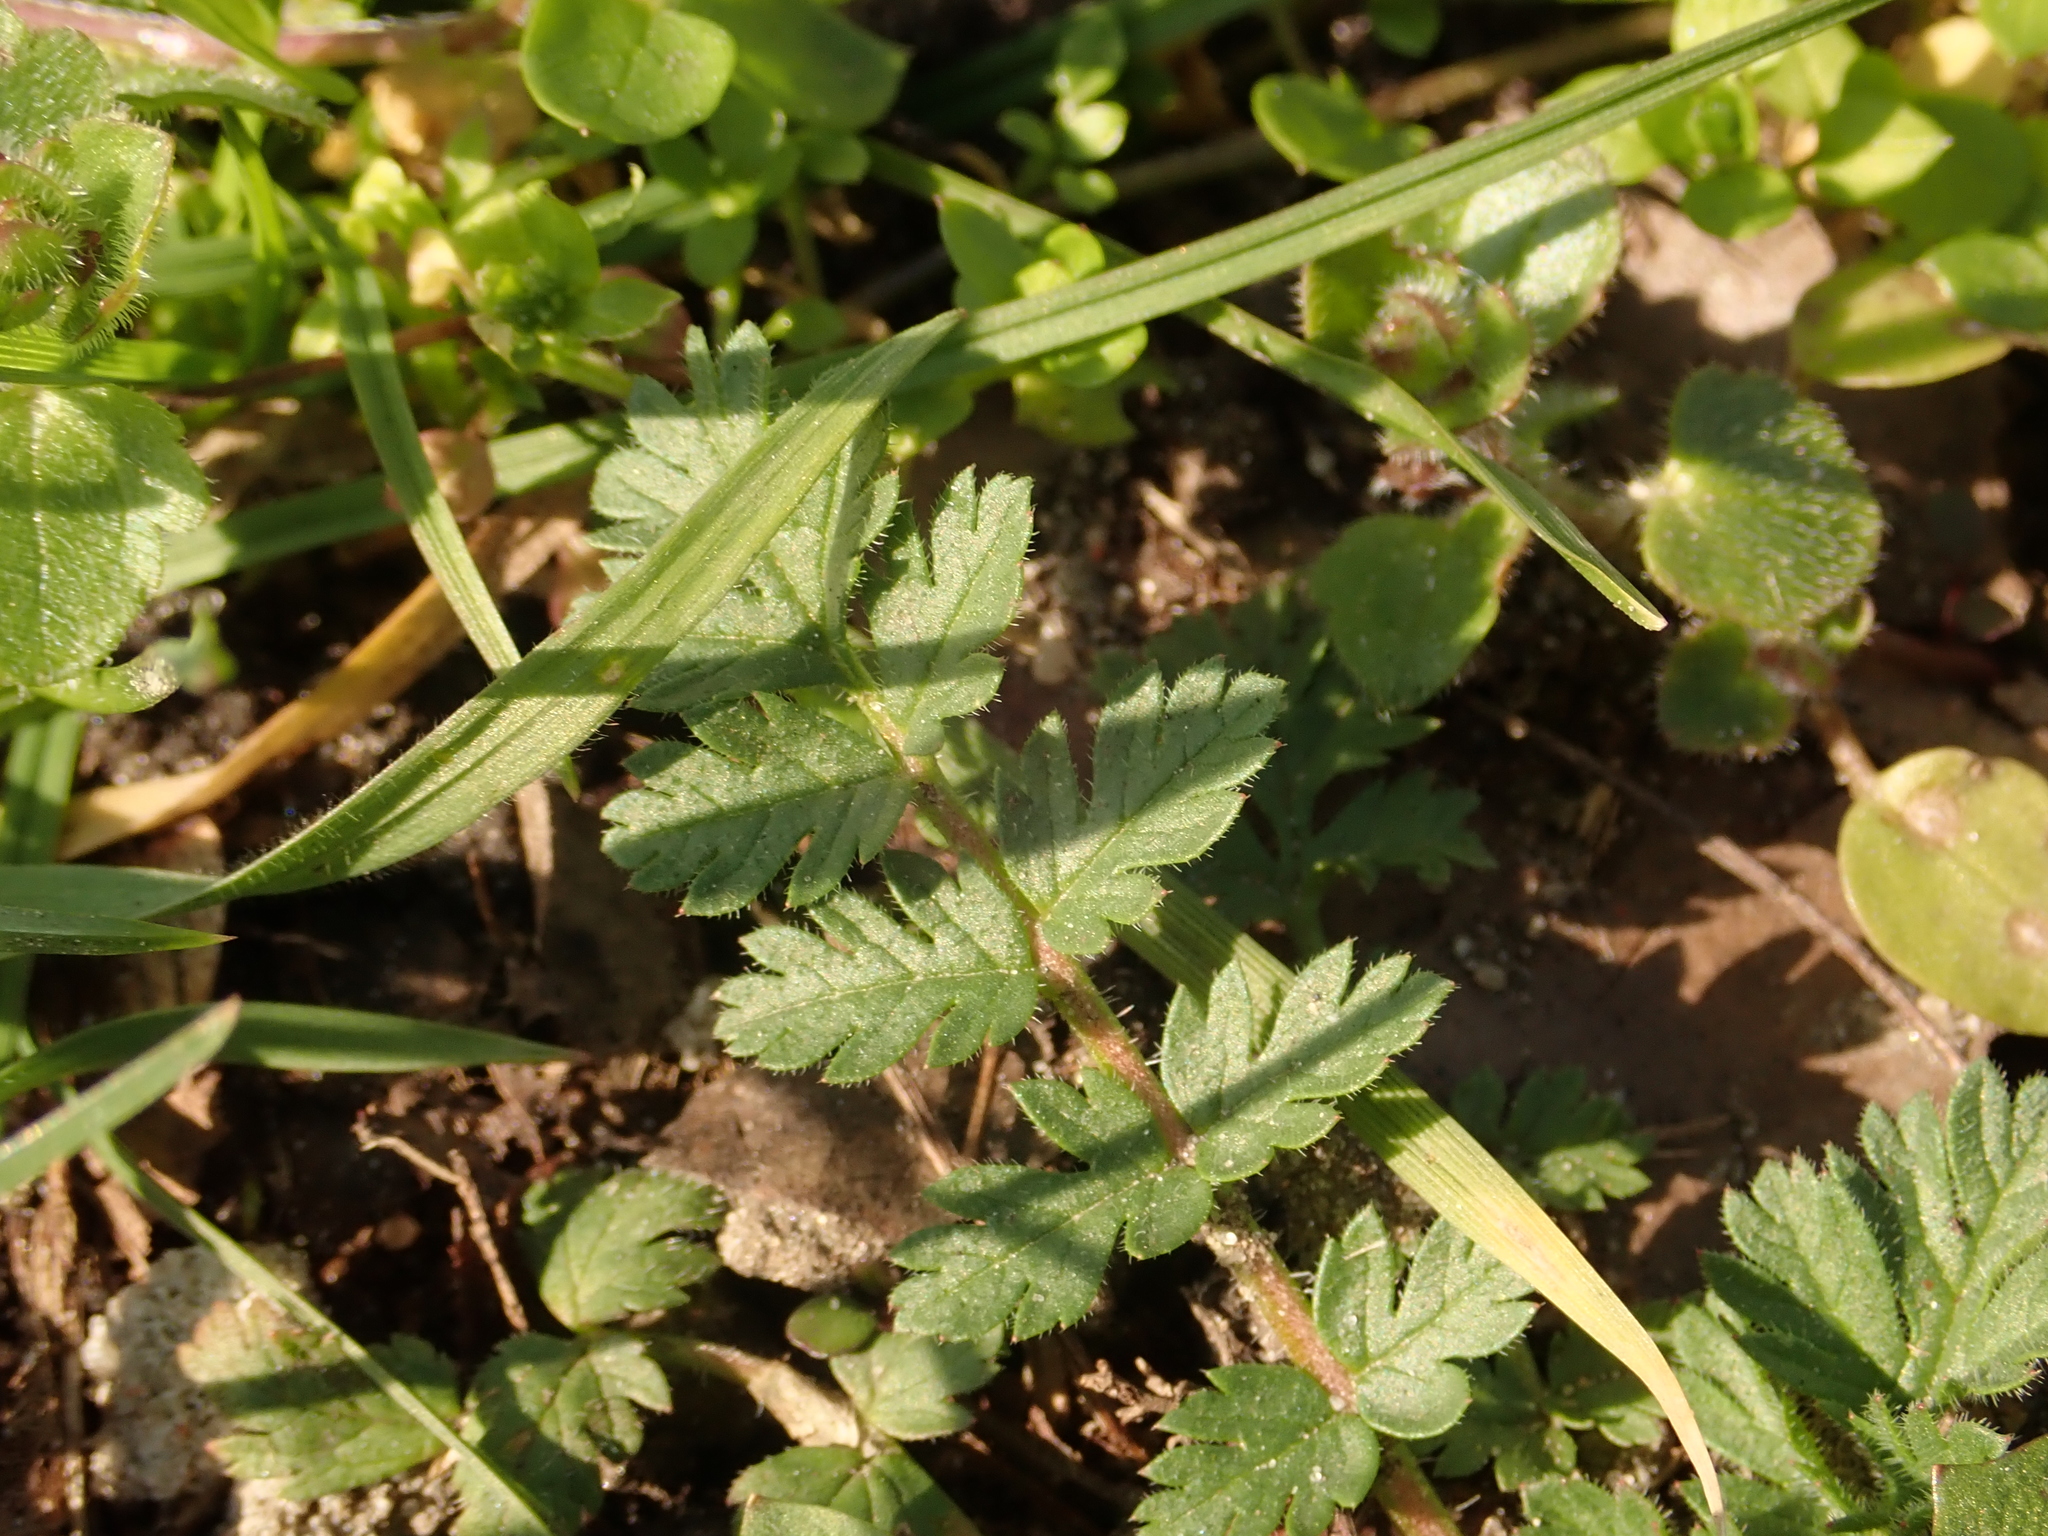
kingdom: Plantae
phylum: Tracheophyta
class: Magnoliopsida
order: Geraniales
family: Geraniaceae
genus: Erodium
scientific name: Erodium cicutarium
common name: Common stork's-bill
